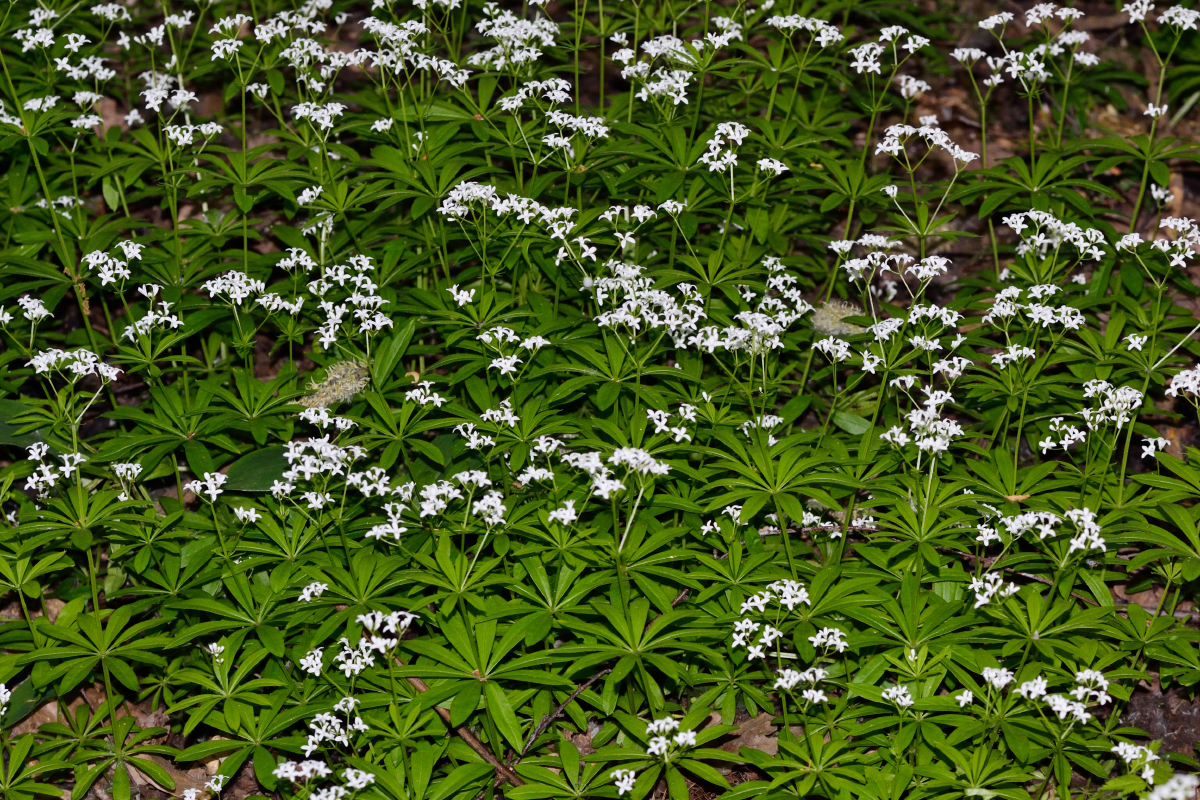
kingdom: Plantae
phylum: Tracheophyta
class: Magnoliopsida
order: Gentianales
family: Rubiaceae
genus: Galium
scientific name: Galium odoratum
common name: Sweet woodruff
